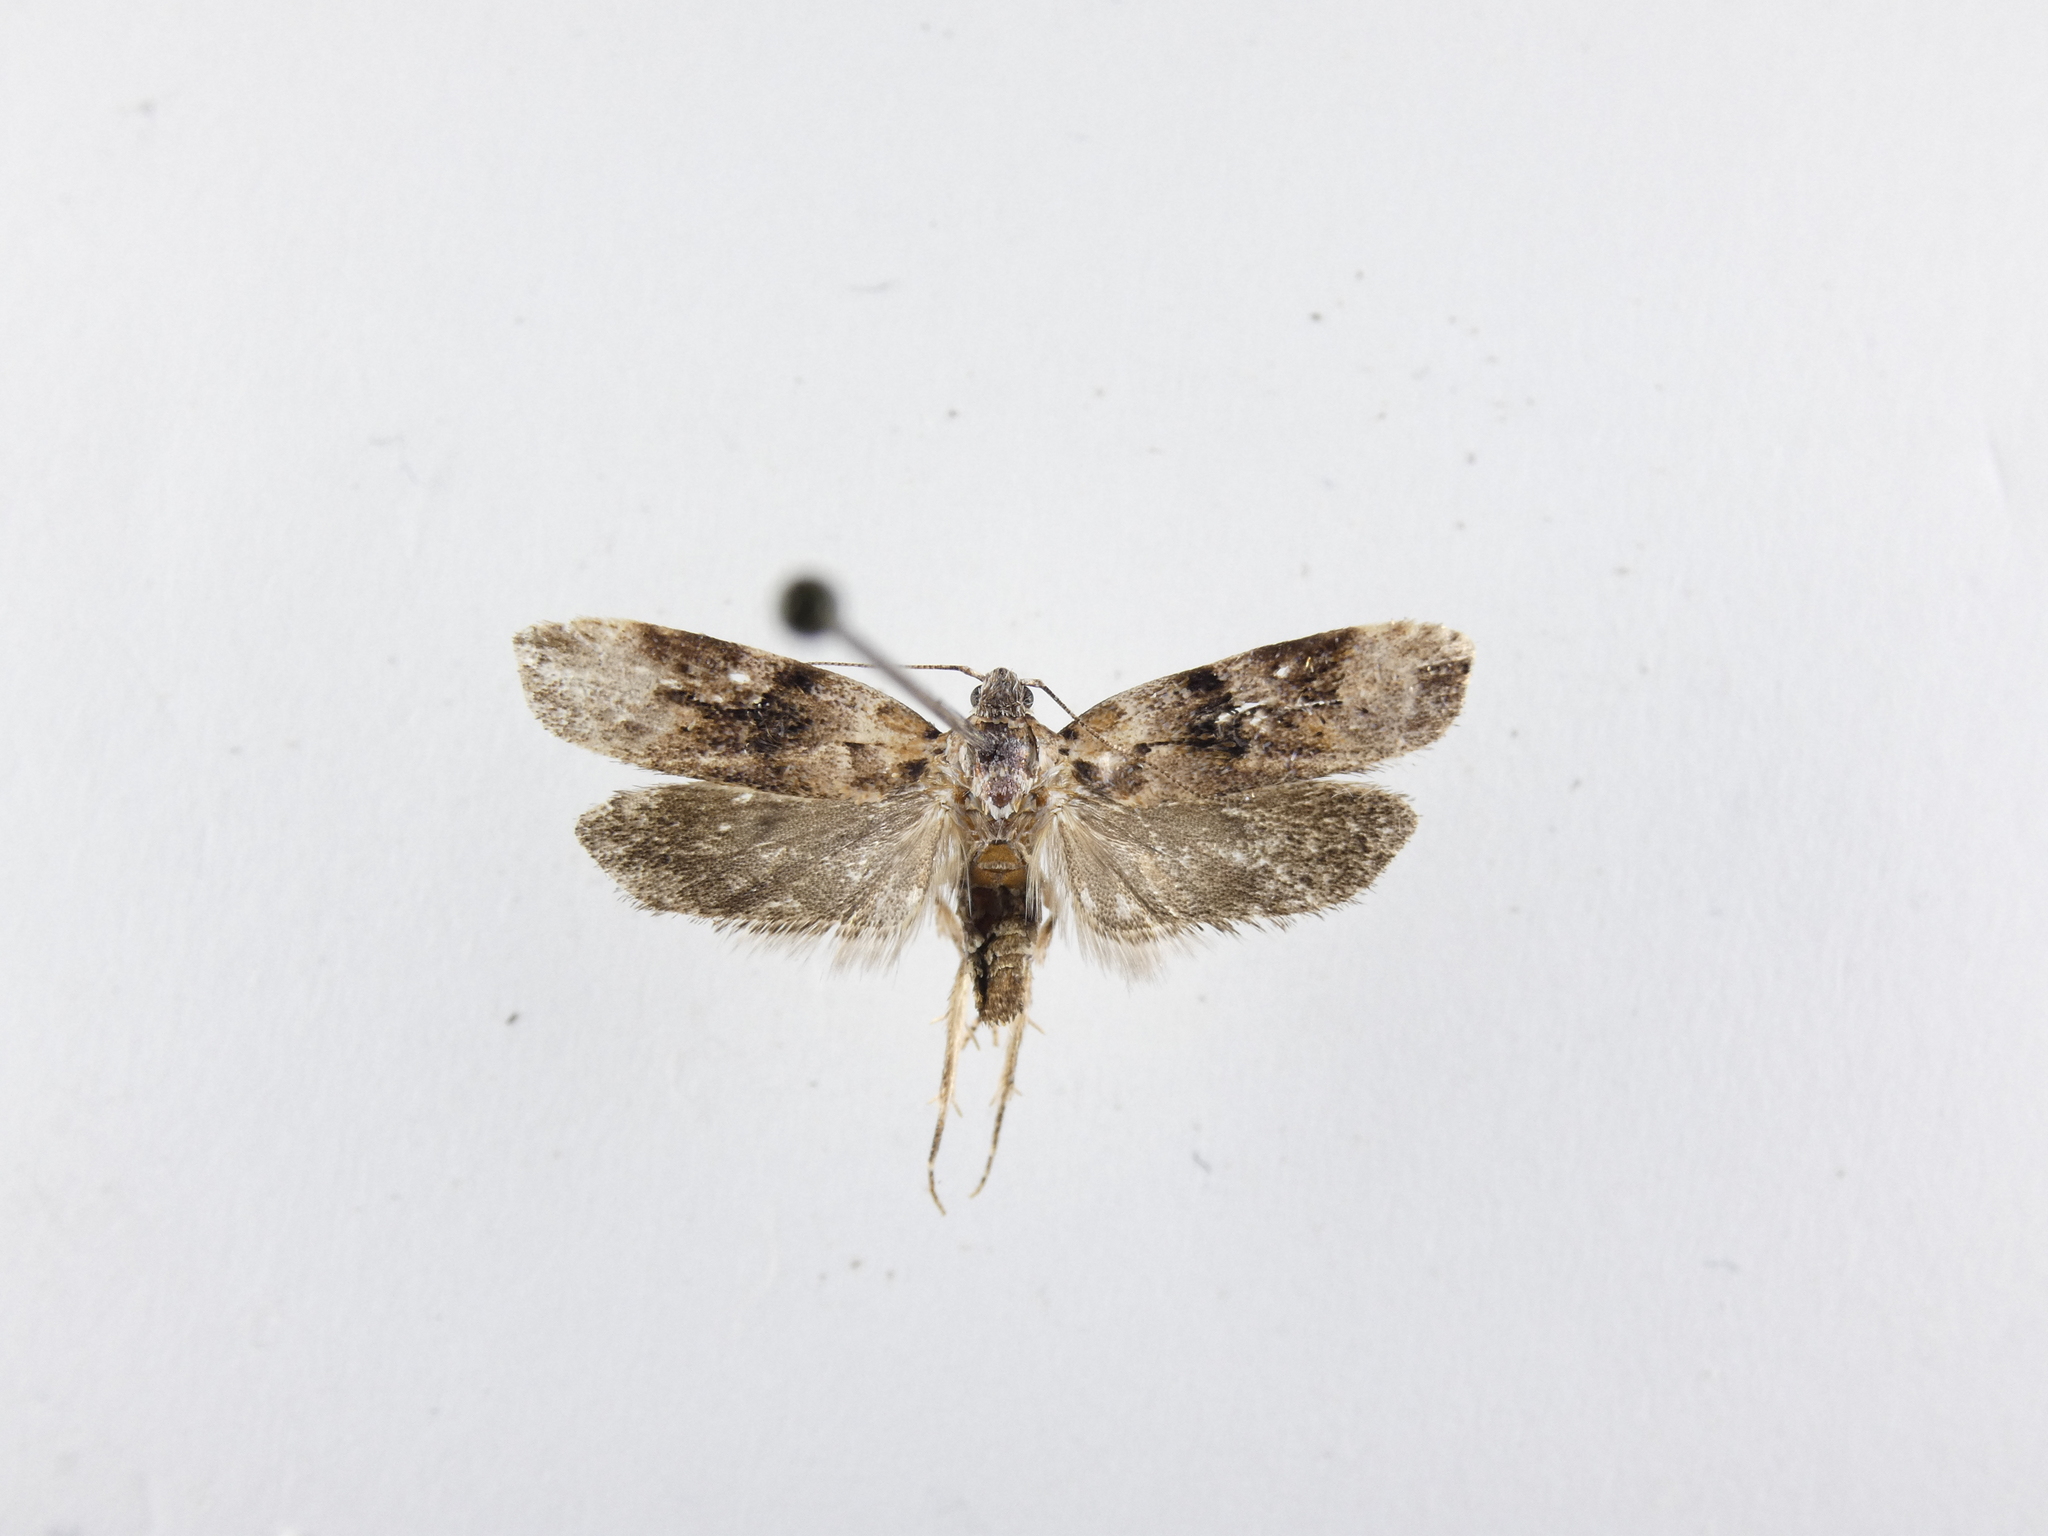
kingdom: Animalia
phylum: Arthropoda
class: Insecta
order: Lepidoptera
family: Oecophoridae
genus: Izatha
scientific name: Izatha metadelta
